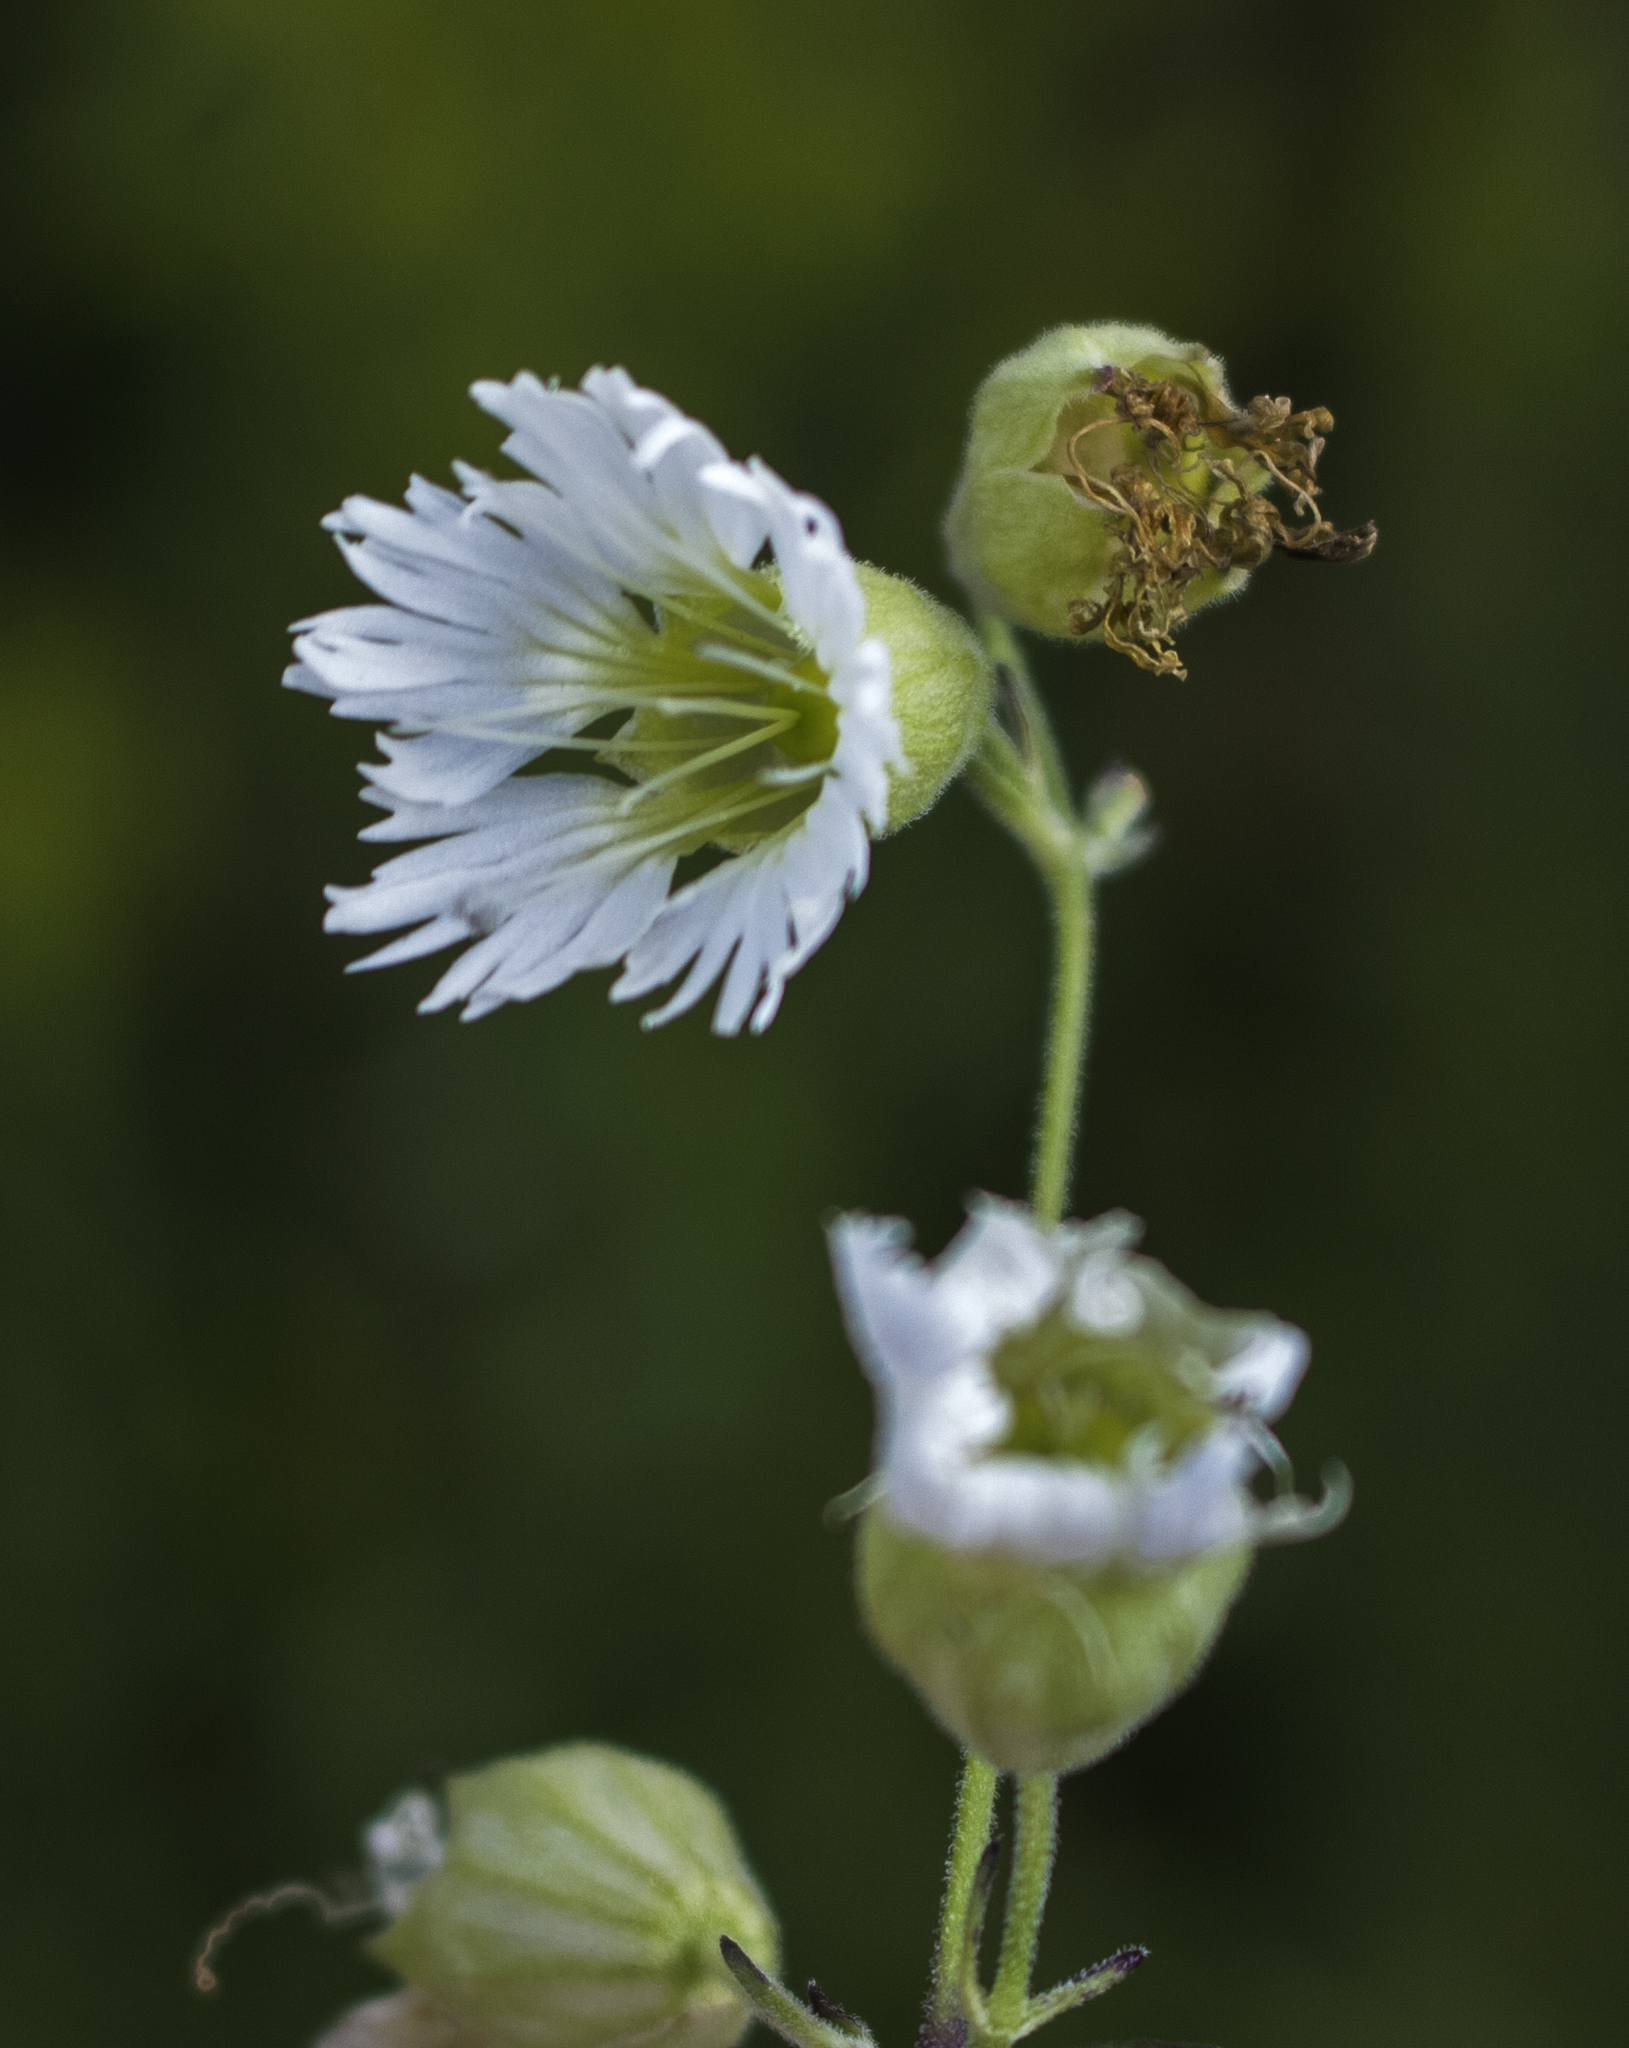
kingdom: Plantae
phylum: Tracheophyta
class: Magnoliopsida
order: Caryophyllales
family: Caryophyllaceae
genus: Silene
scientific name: Silene stellata
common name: Starry campion
